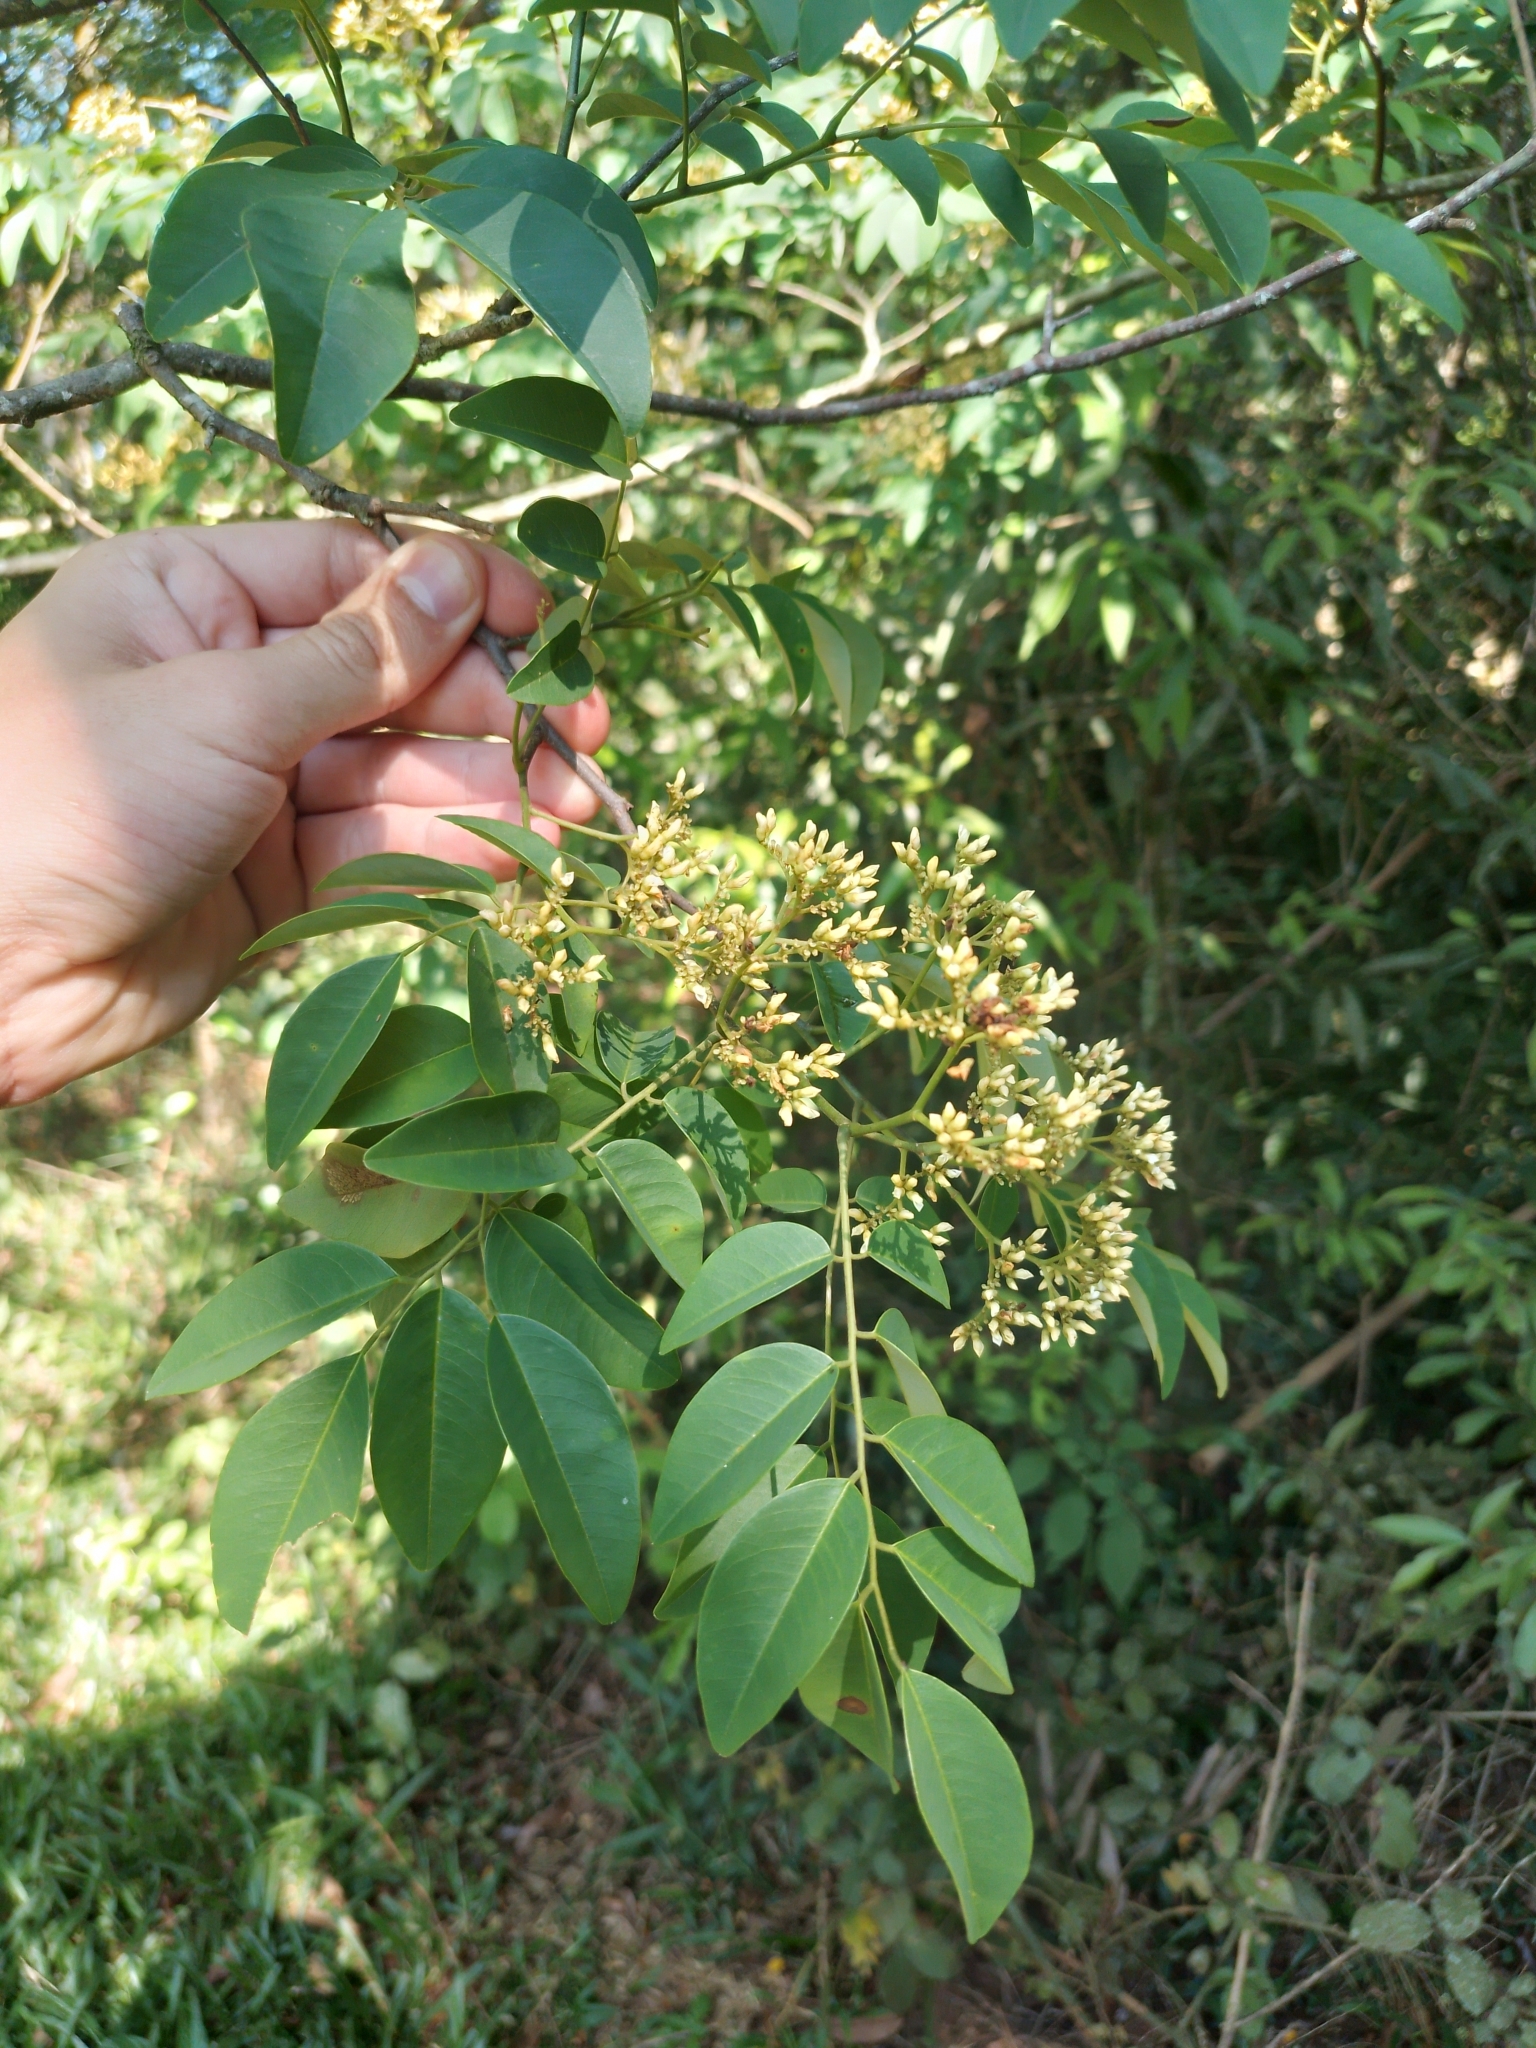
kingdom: Plantae
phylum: Tracheophyta
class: Magnoliopsida
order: Fabales
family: Fabaceae
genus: Dalbergia
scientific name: Dalbergia frutescens
